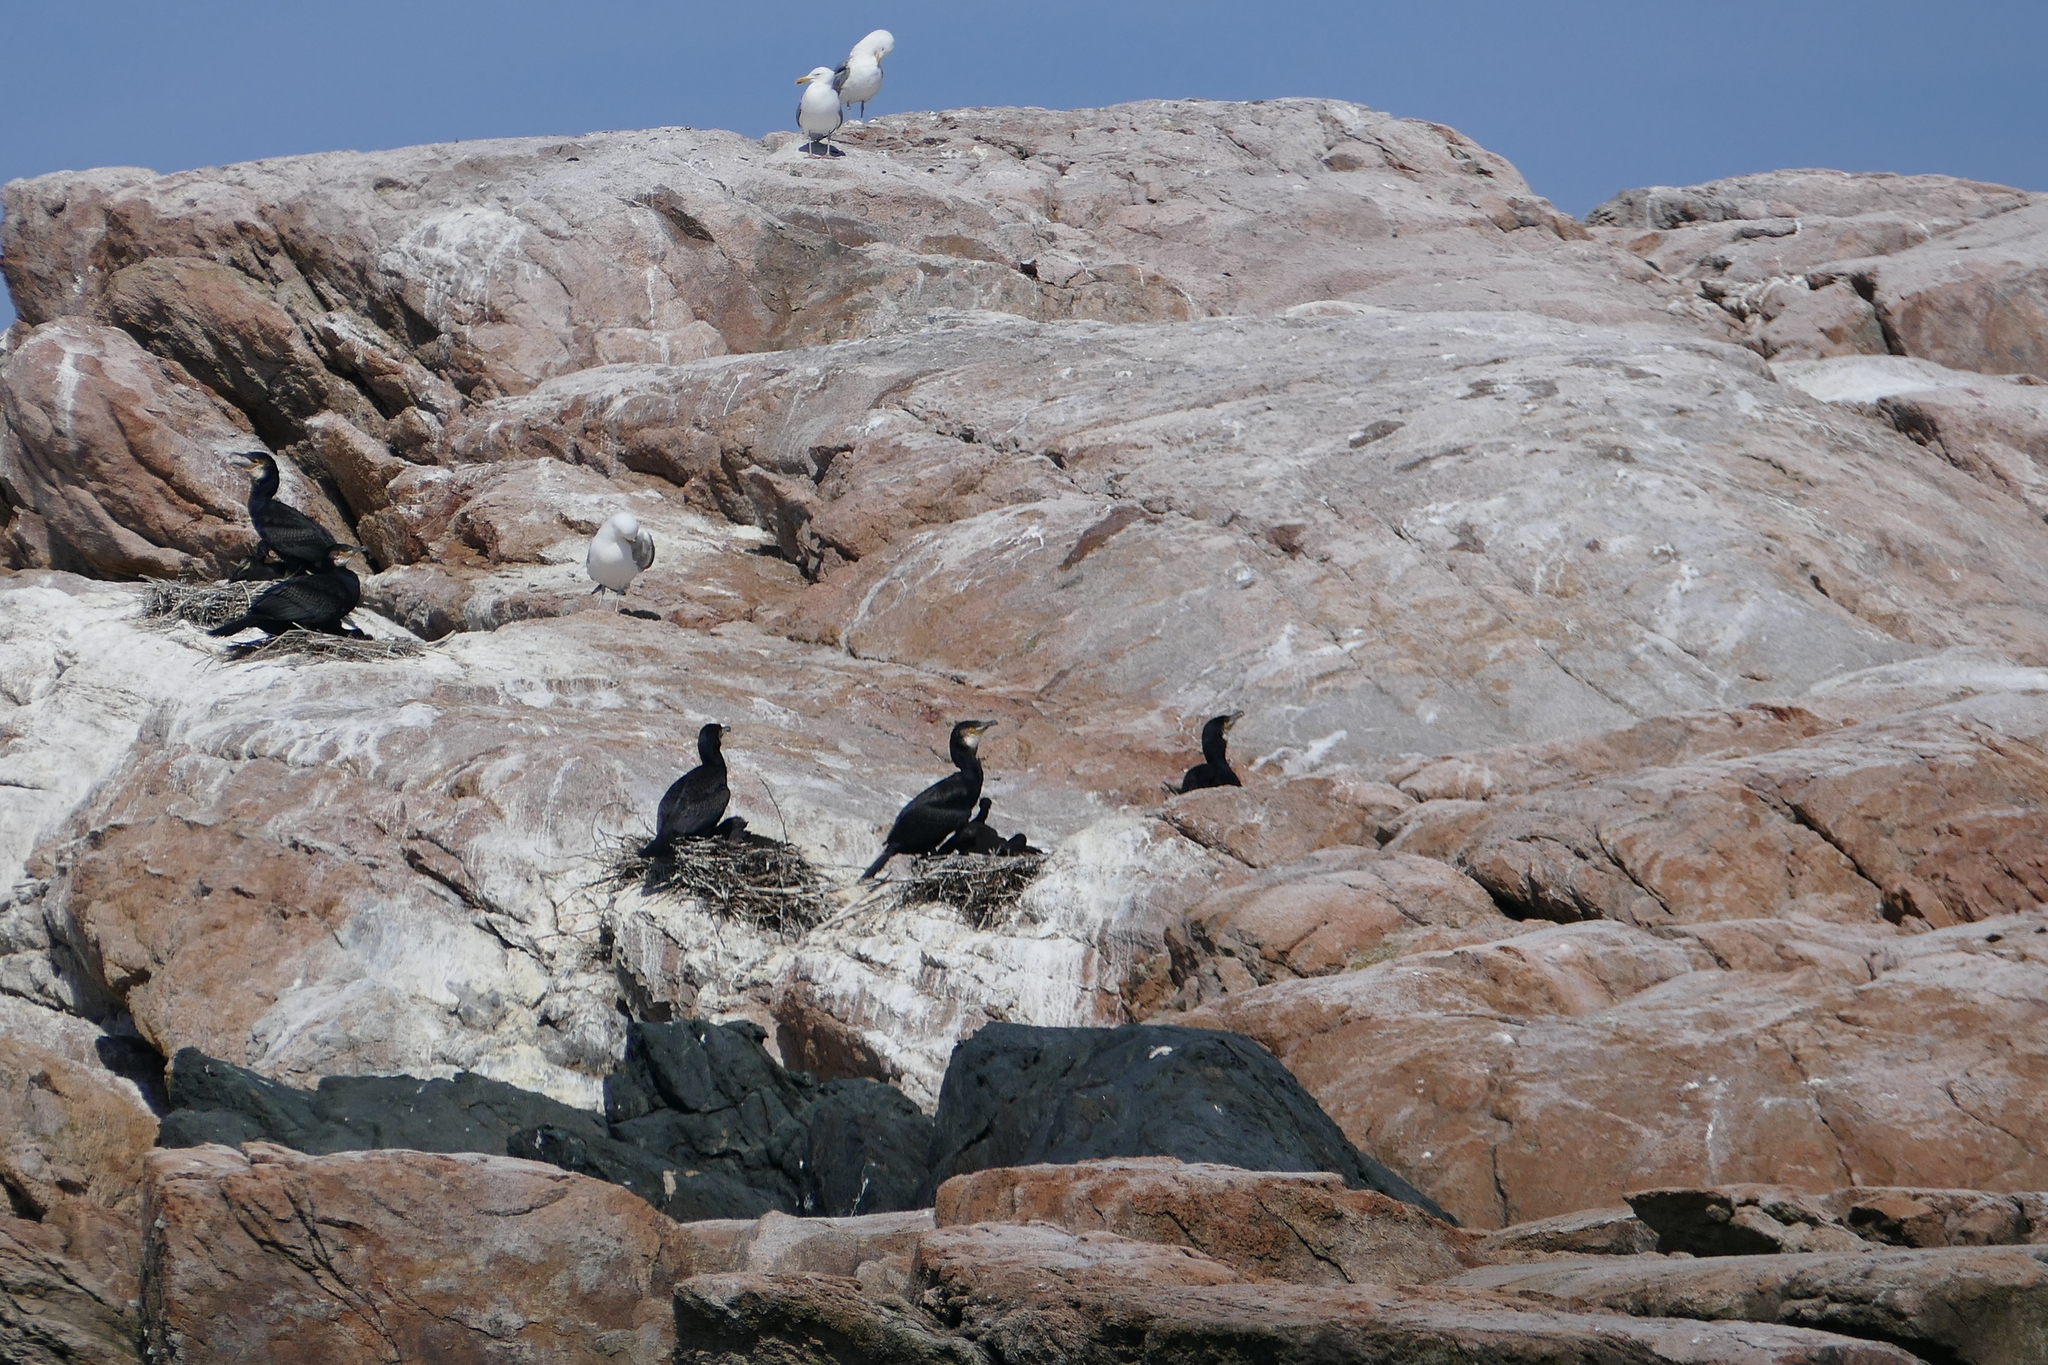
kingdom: Animalia
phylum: Chordata
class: Aves
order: Suliformes
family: Phalacrocoracidae
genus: Phalacrocorax
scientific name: Phalacrocorax carbo
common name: Great cormorant
